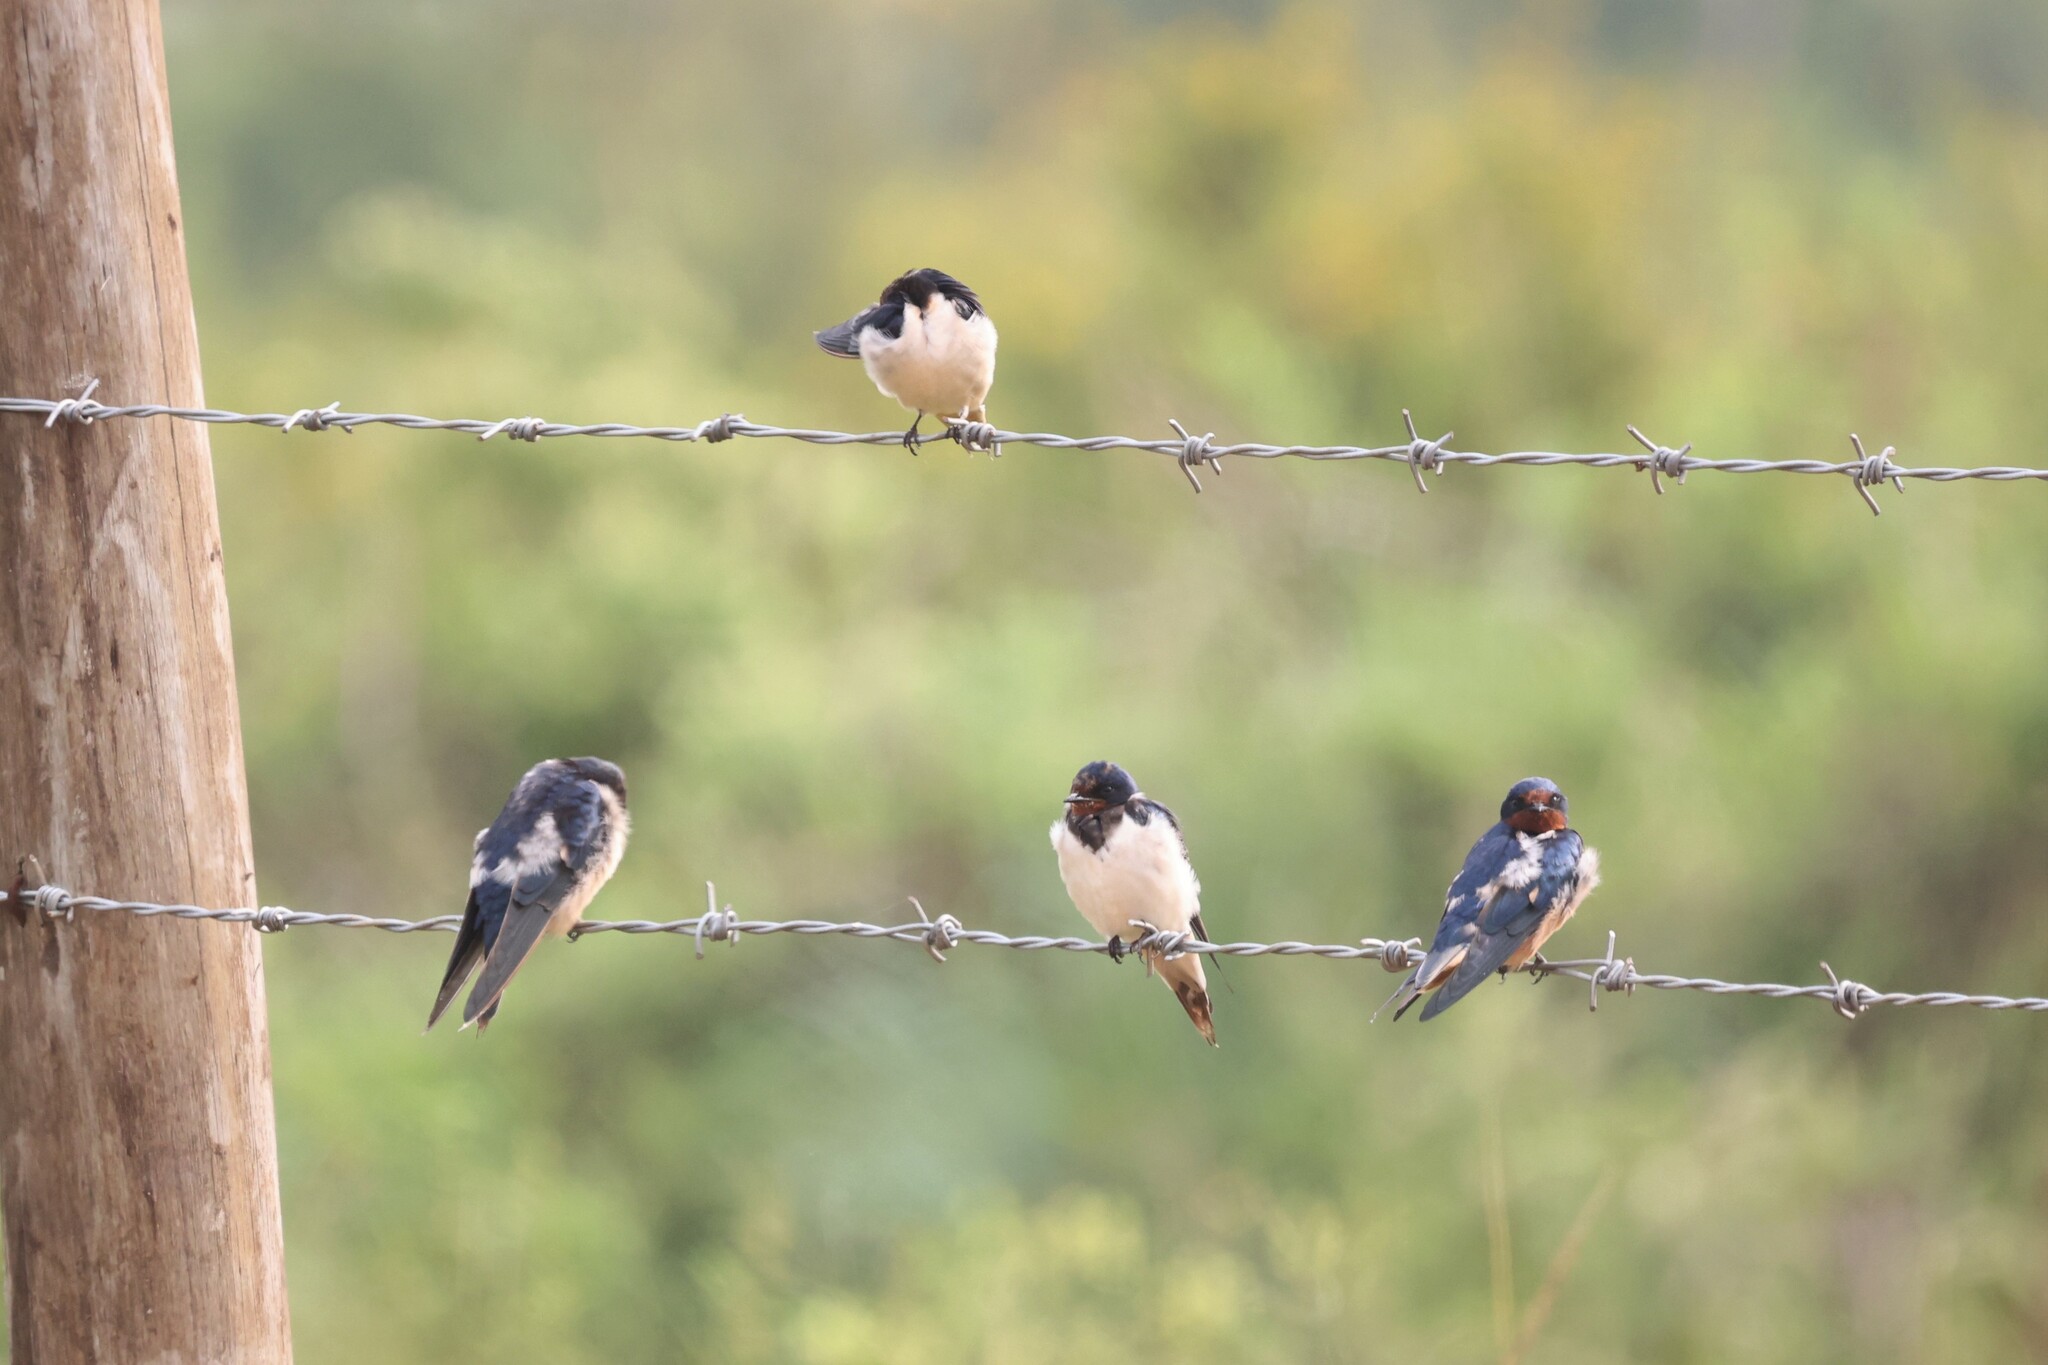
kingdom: Animalia
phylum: Chordata
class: Aves
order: Passeriformes
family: Hirundinidae
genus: Hirundo
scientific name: Hirundo rustica
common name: Barn swallow
